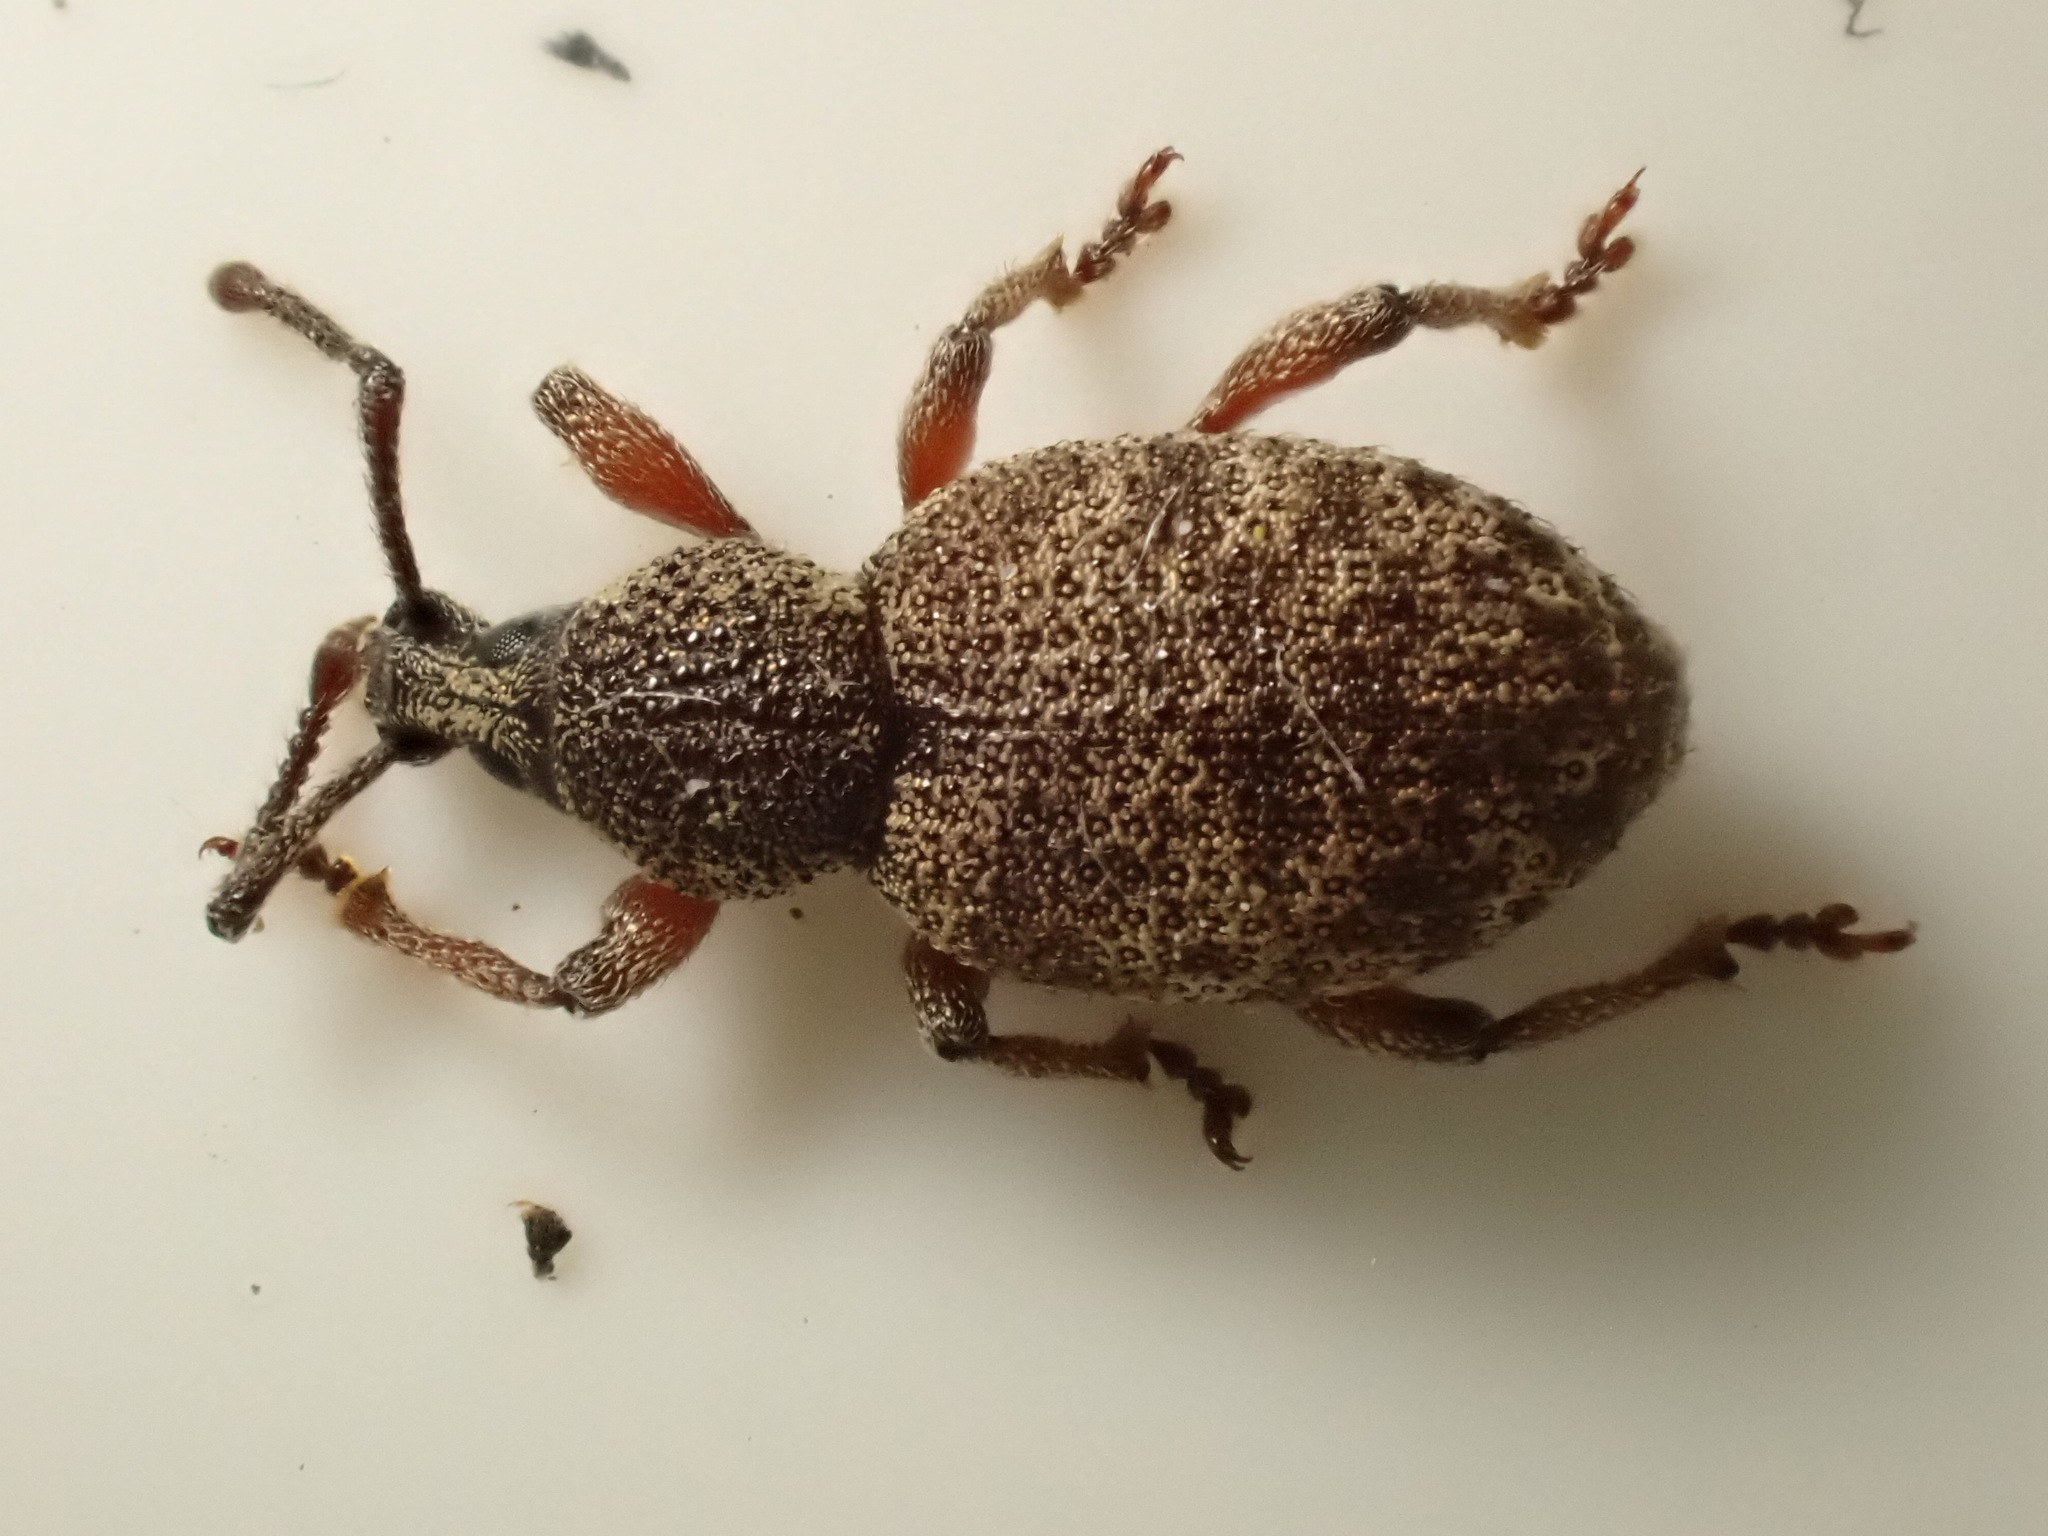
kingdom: Animalia
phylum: Arthropoda
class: Insecta
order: Coleoptera
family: Curculionidae
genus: Otiorhynchus
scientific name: Otiorhynchus singularis
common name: Clay-coloured weevil
